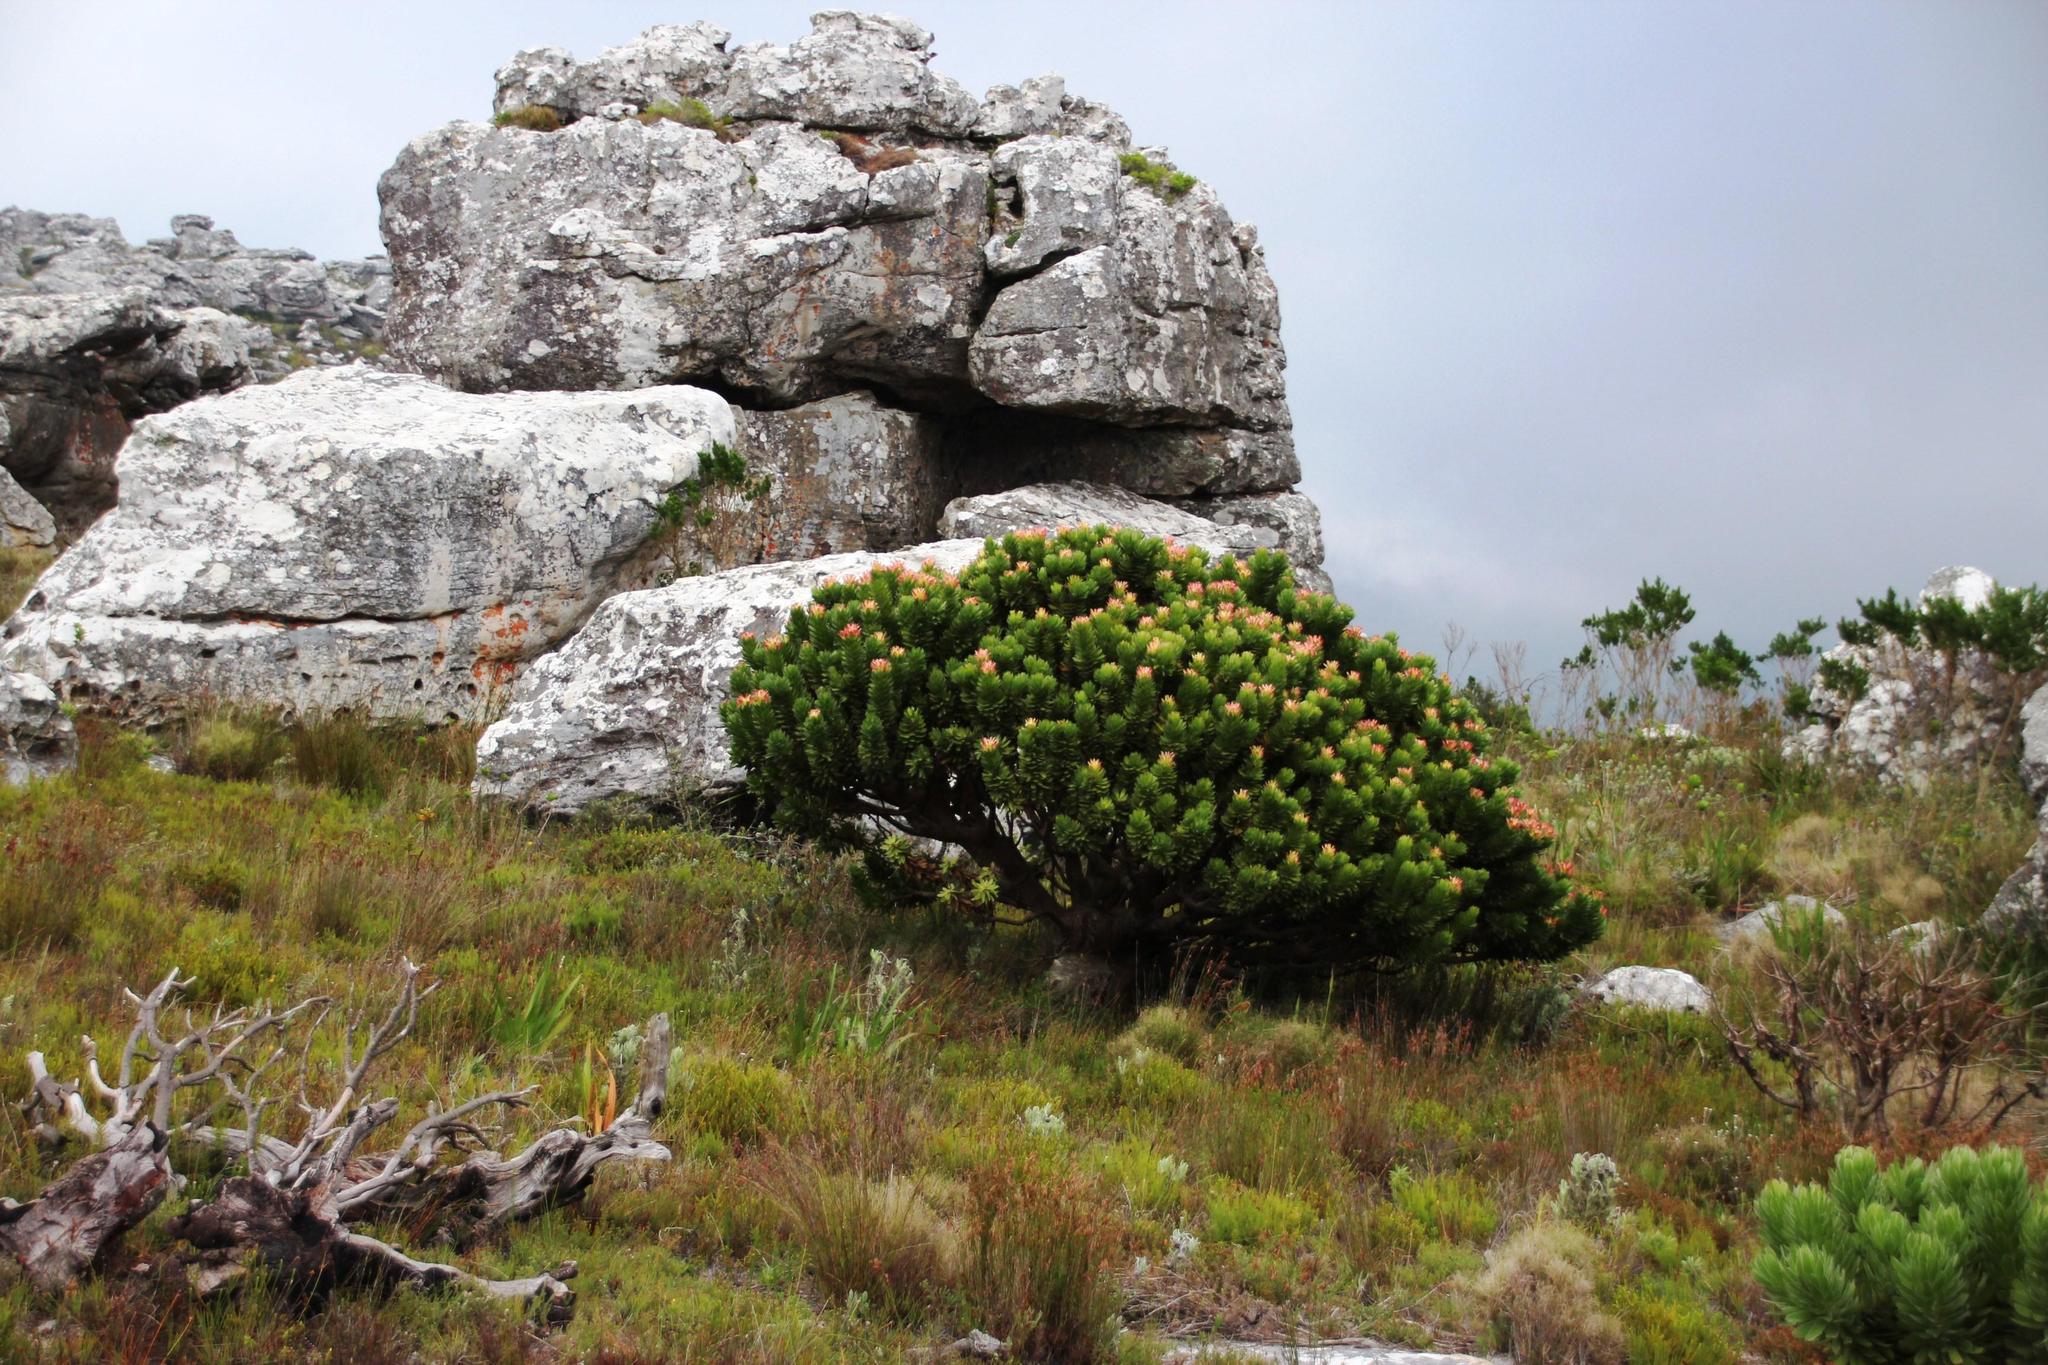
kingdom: Plantae
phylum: Tracheophyta
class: Magnoliopsida
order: Proteales
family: Proteaceae
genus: Mimetes
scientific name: Mimetes fimbriifolius
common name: Fringed bottlebrush
